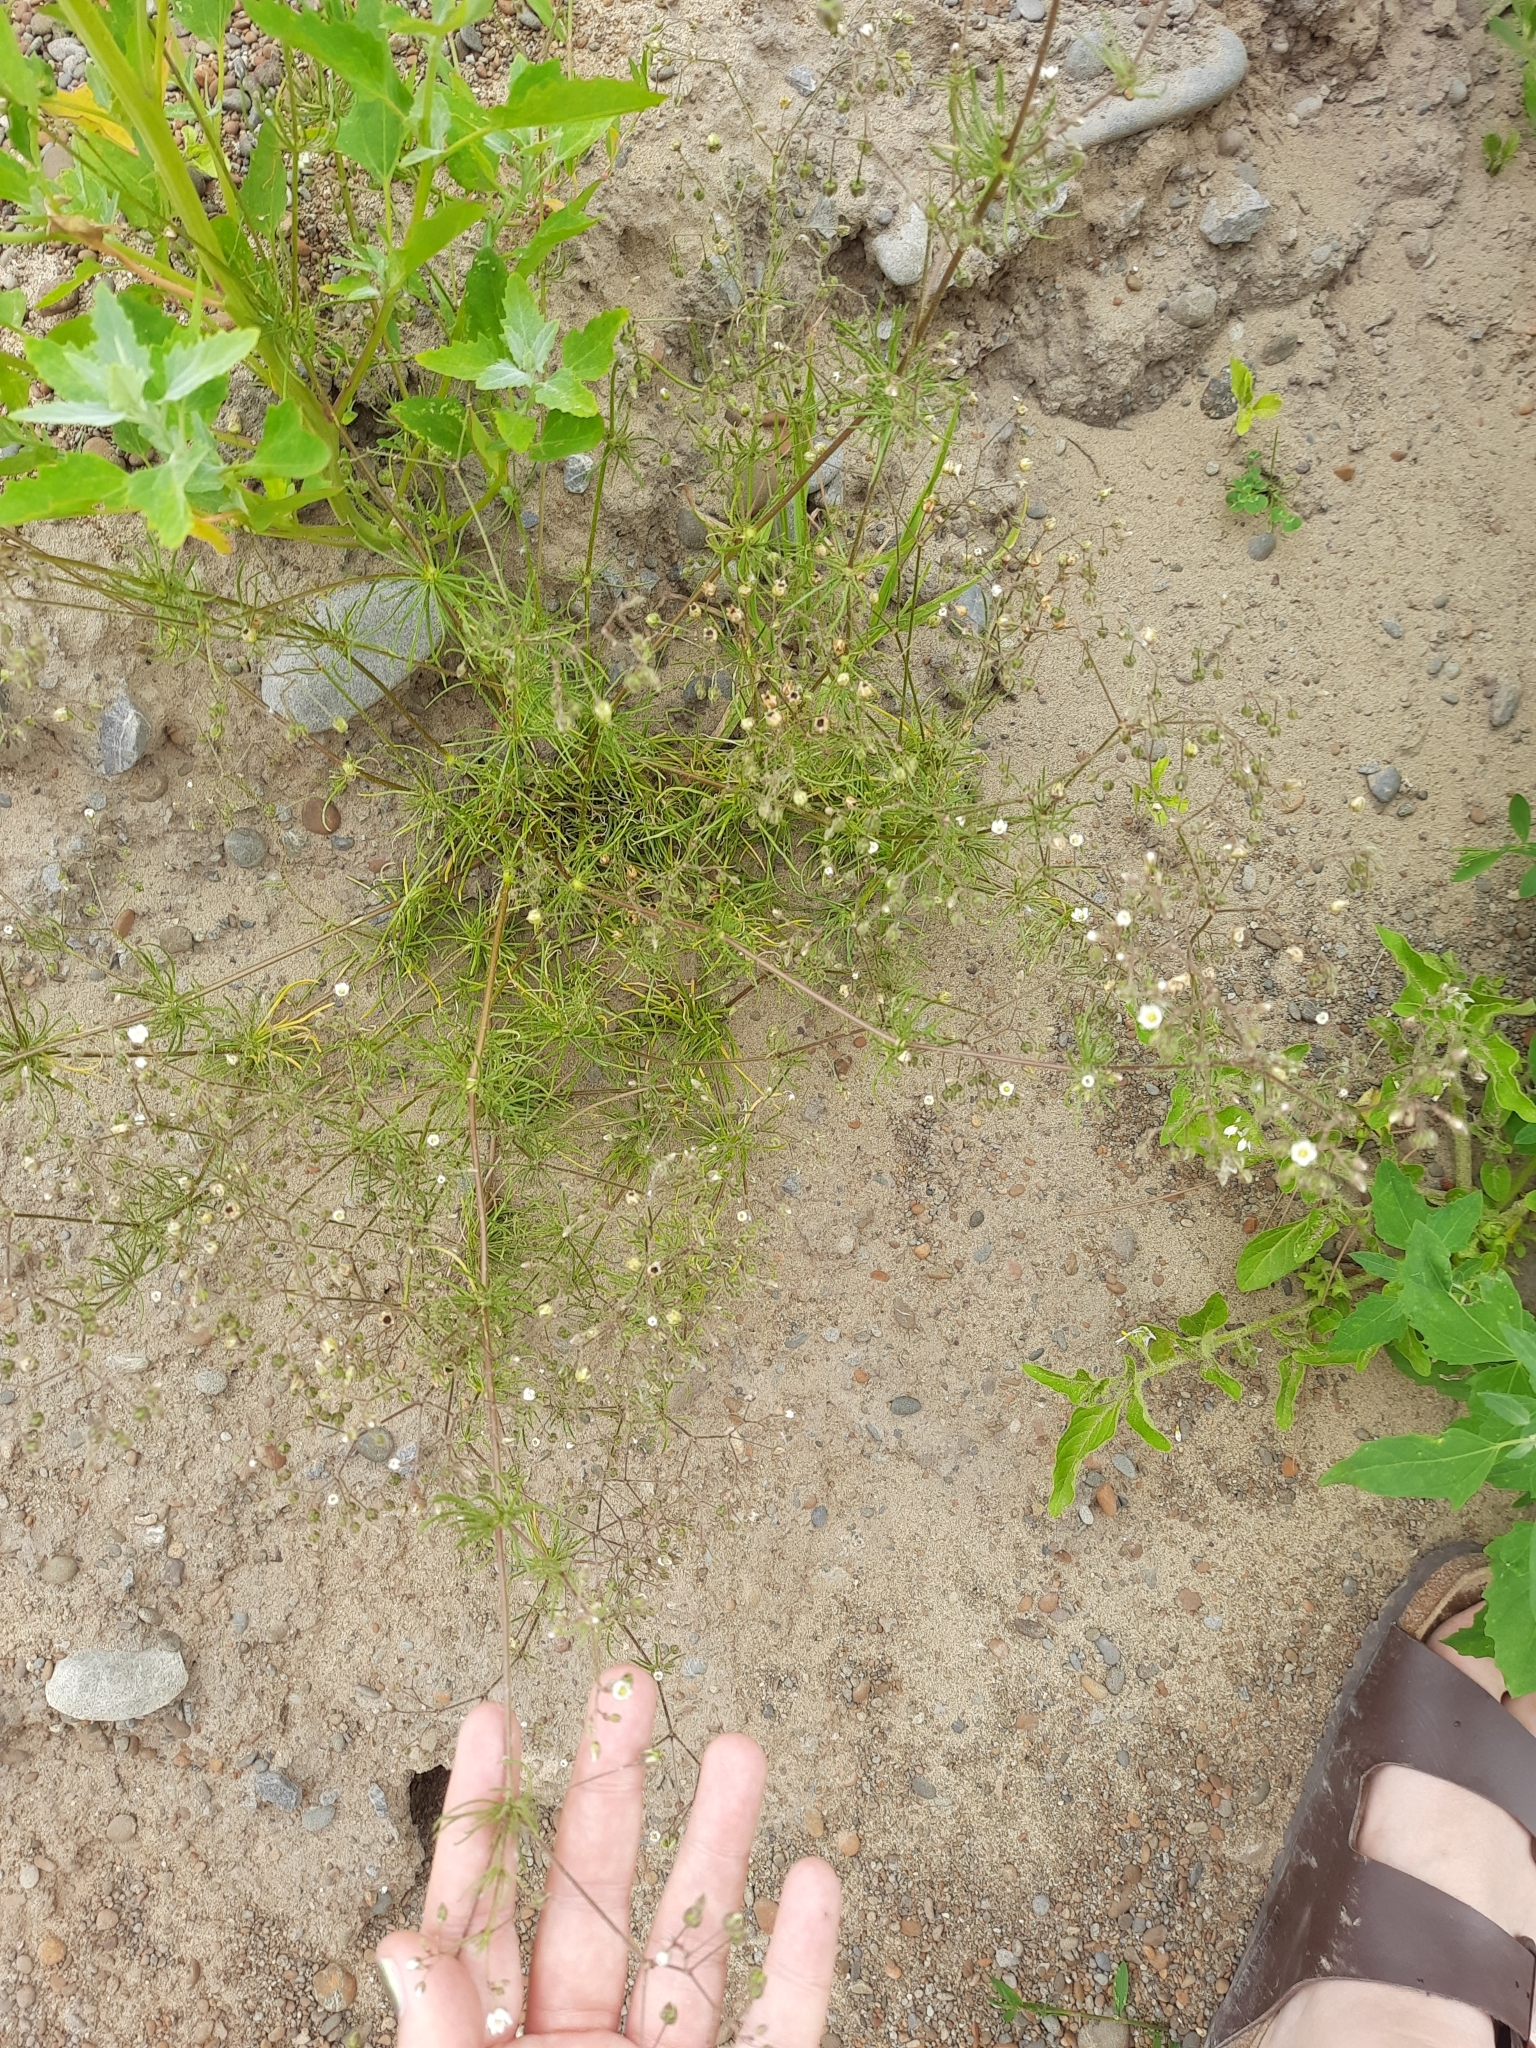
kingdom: Plantae
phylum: Tracheophyta
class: Magnoliopsida
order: Caryophyllales
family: Caryophyllaceae
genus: Spergula
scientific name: Spergula arvensis
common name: Corn spurrey
